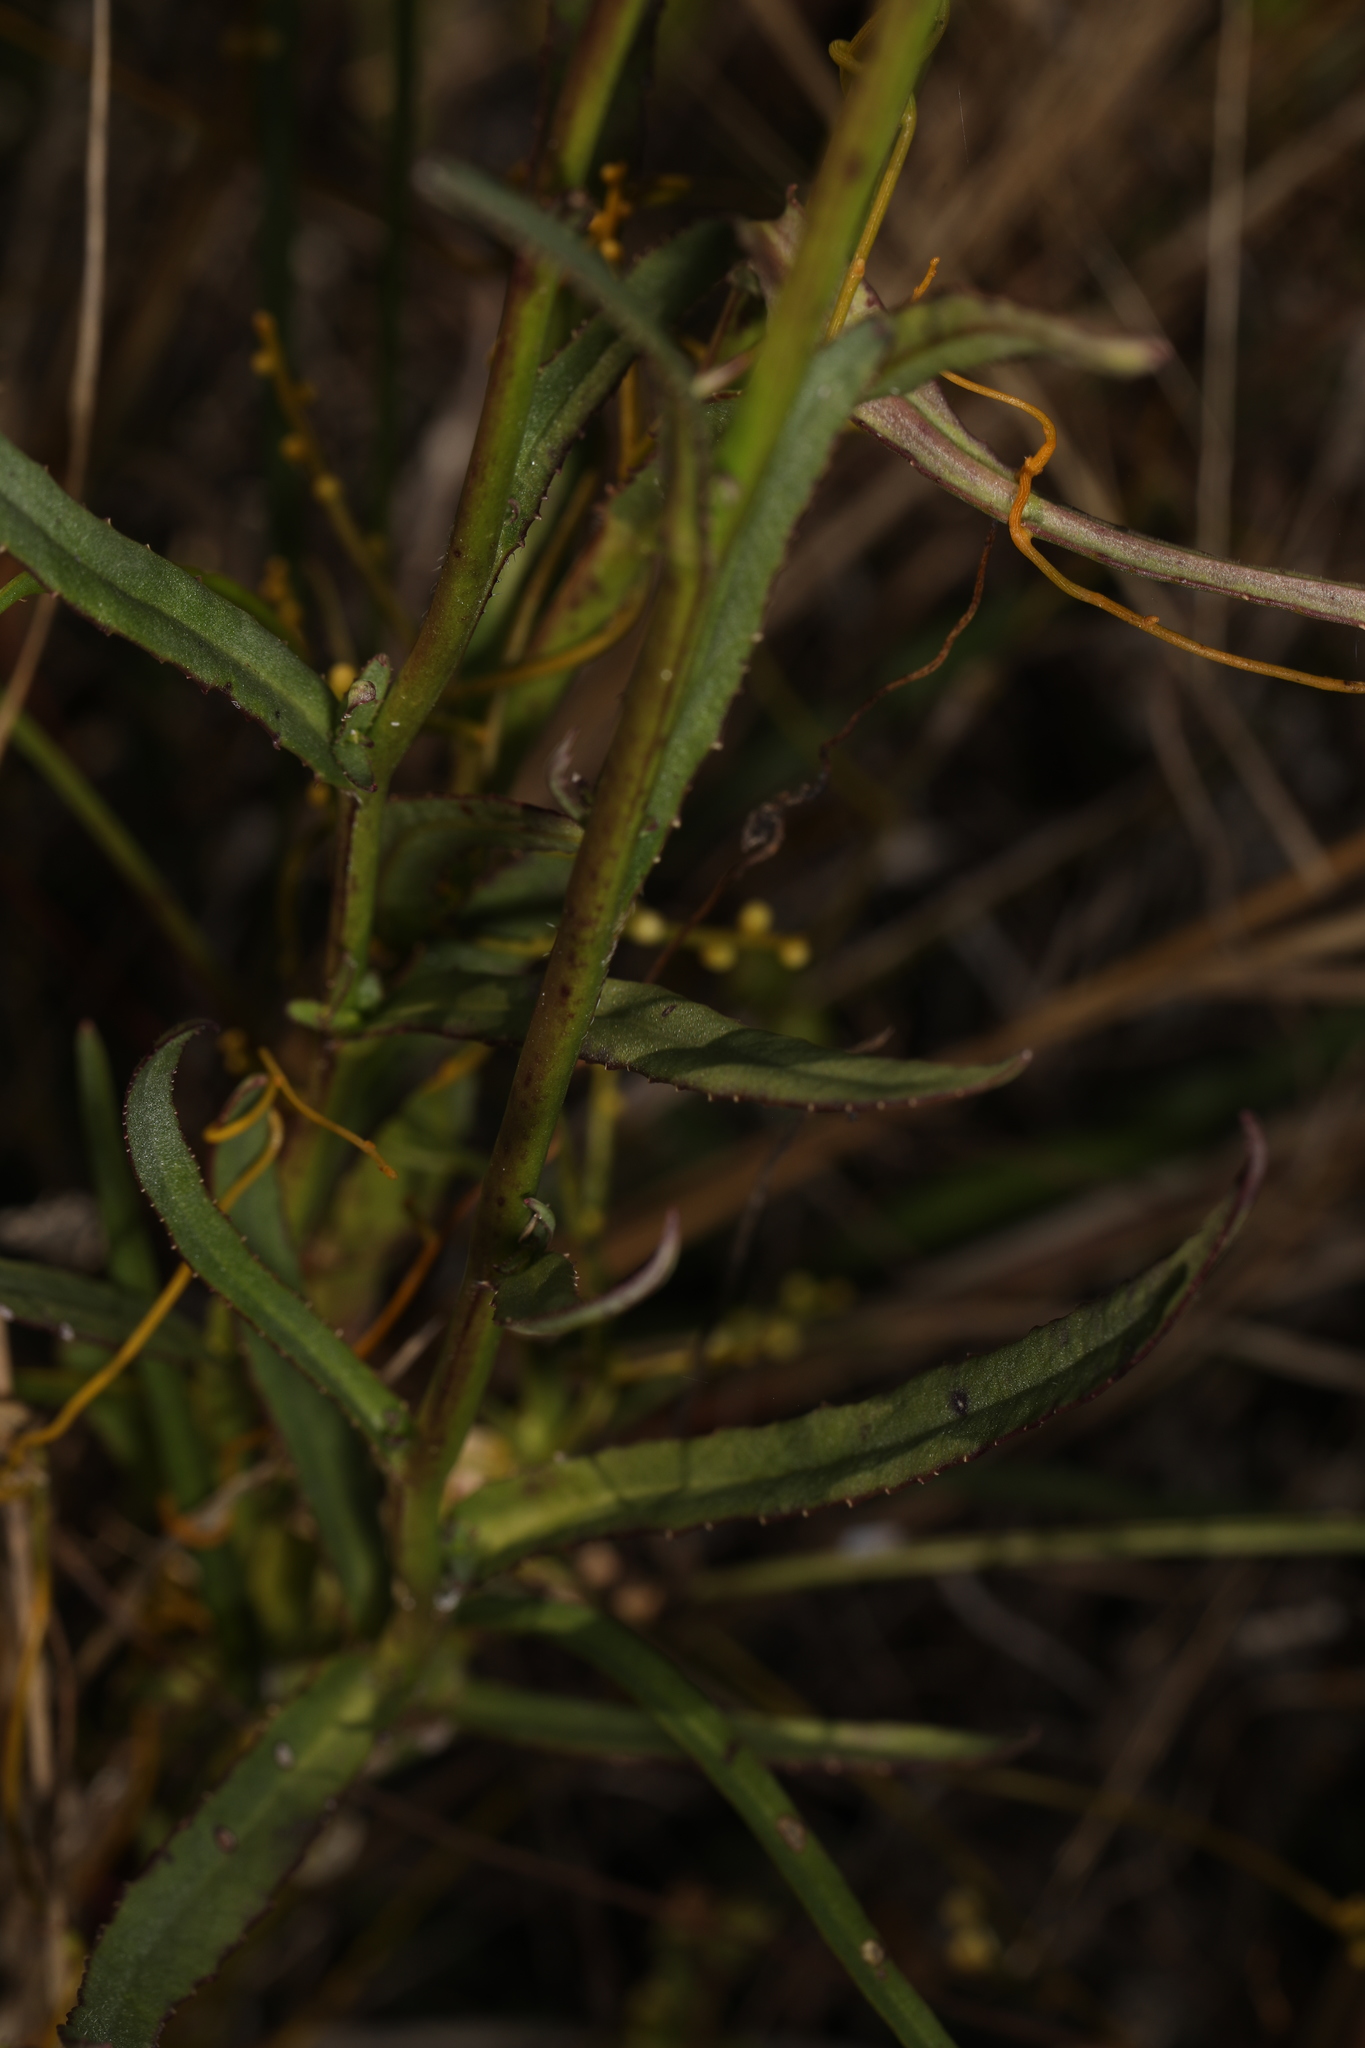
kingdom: Plantae
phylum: Tracheophyta
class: Magnoliopsida
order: Asterales
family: Campanulaceae
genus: Lobelia
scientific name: Lobelia glandulosa
